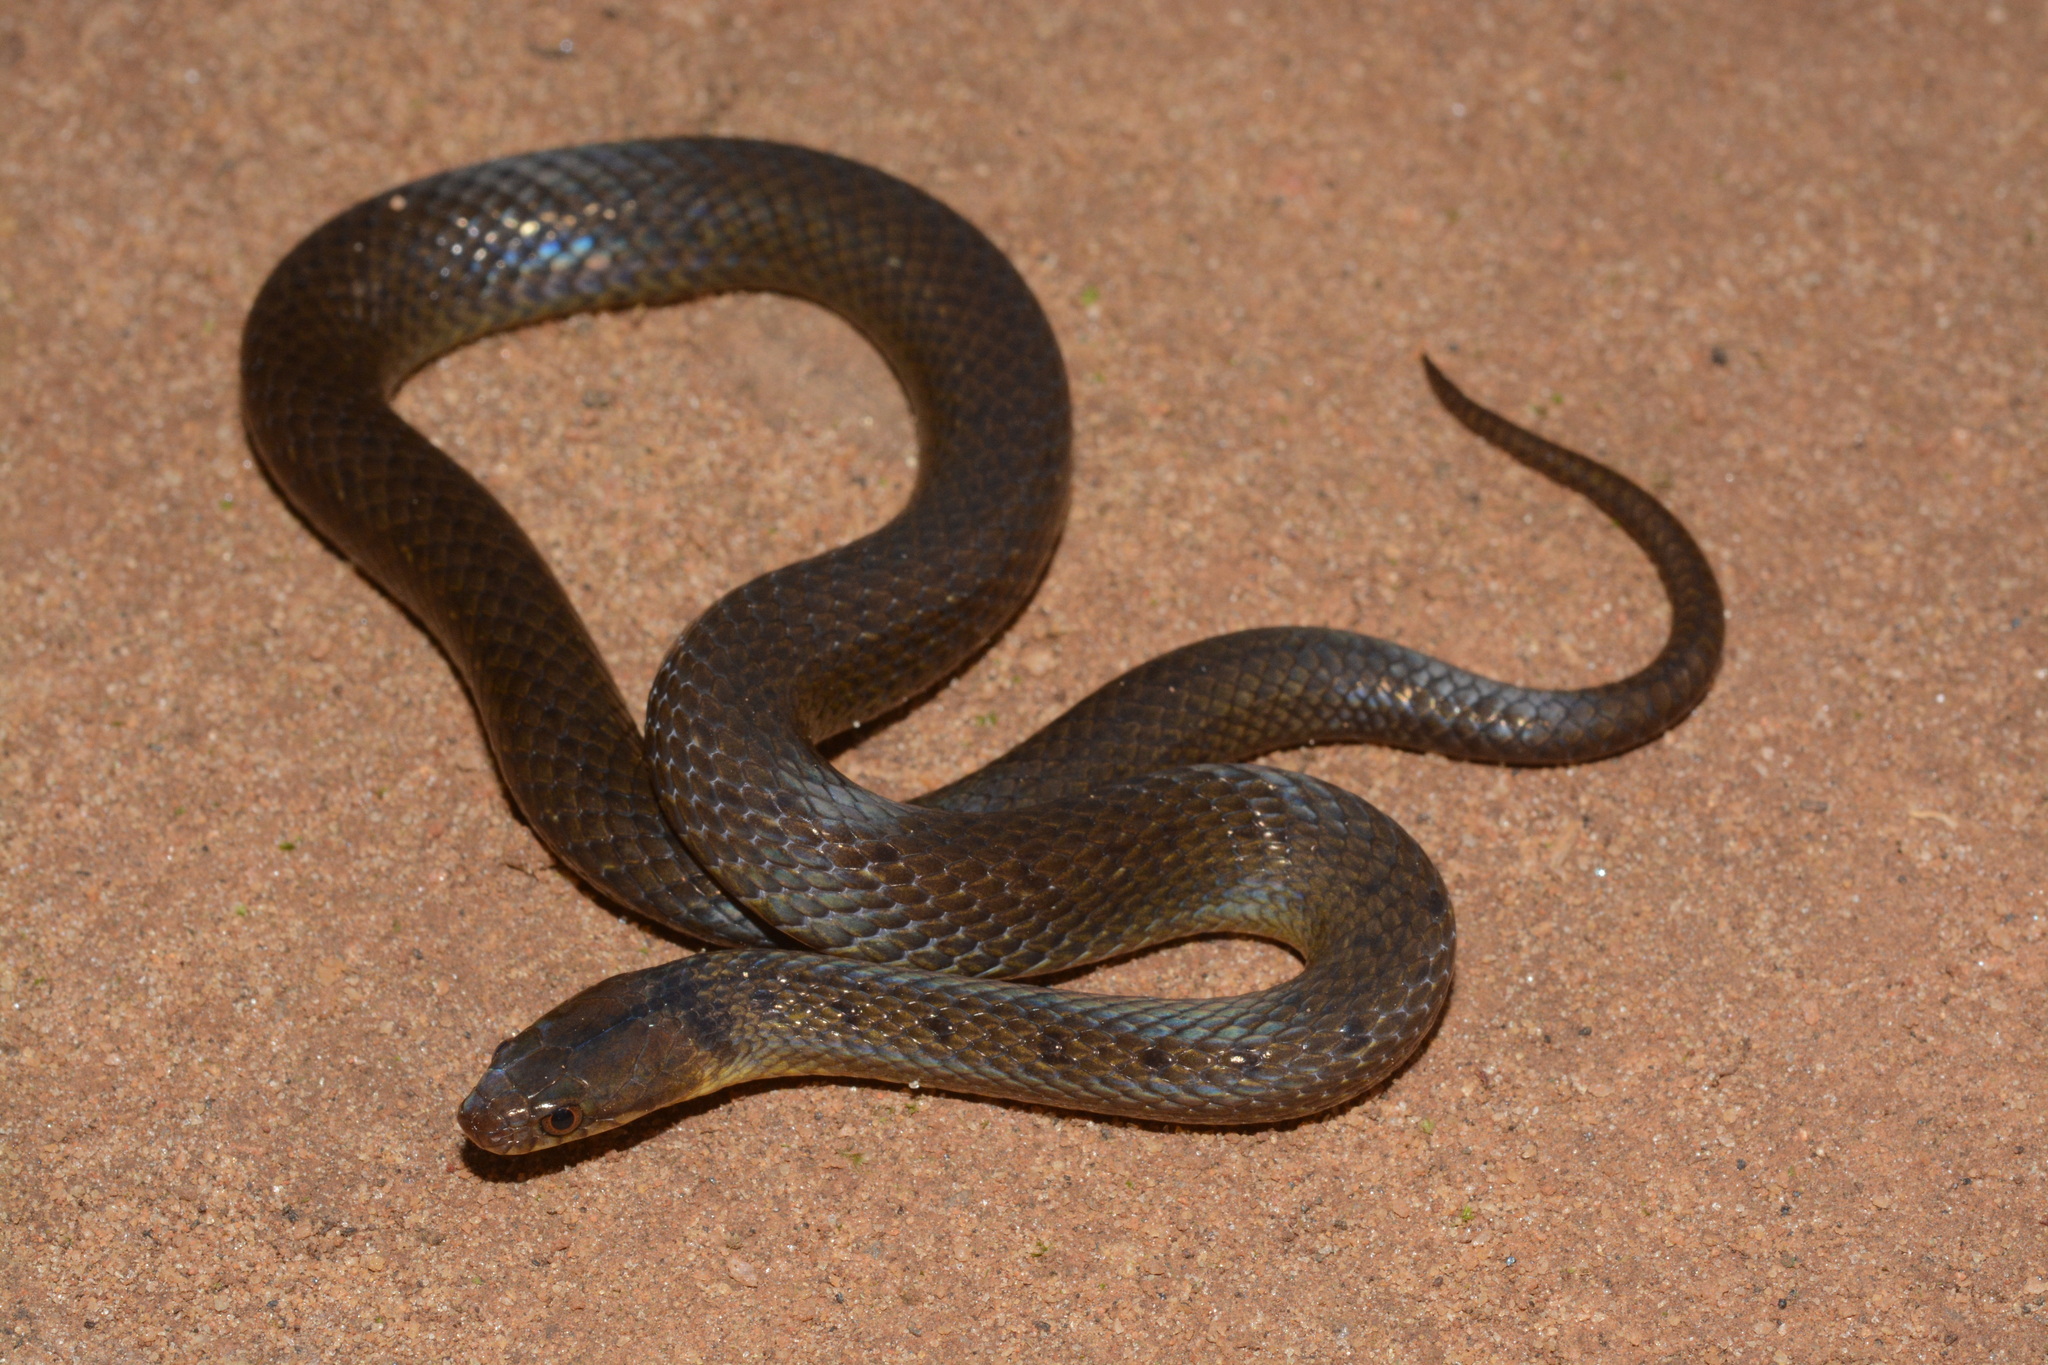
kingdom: Animalia
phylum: Chordata
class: Squamata
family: Pseudoxyrhophiidae
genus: Buhoma
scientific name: Buhoma vauerocegae
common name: Usambara forest snake
